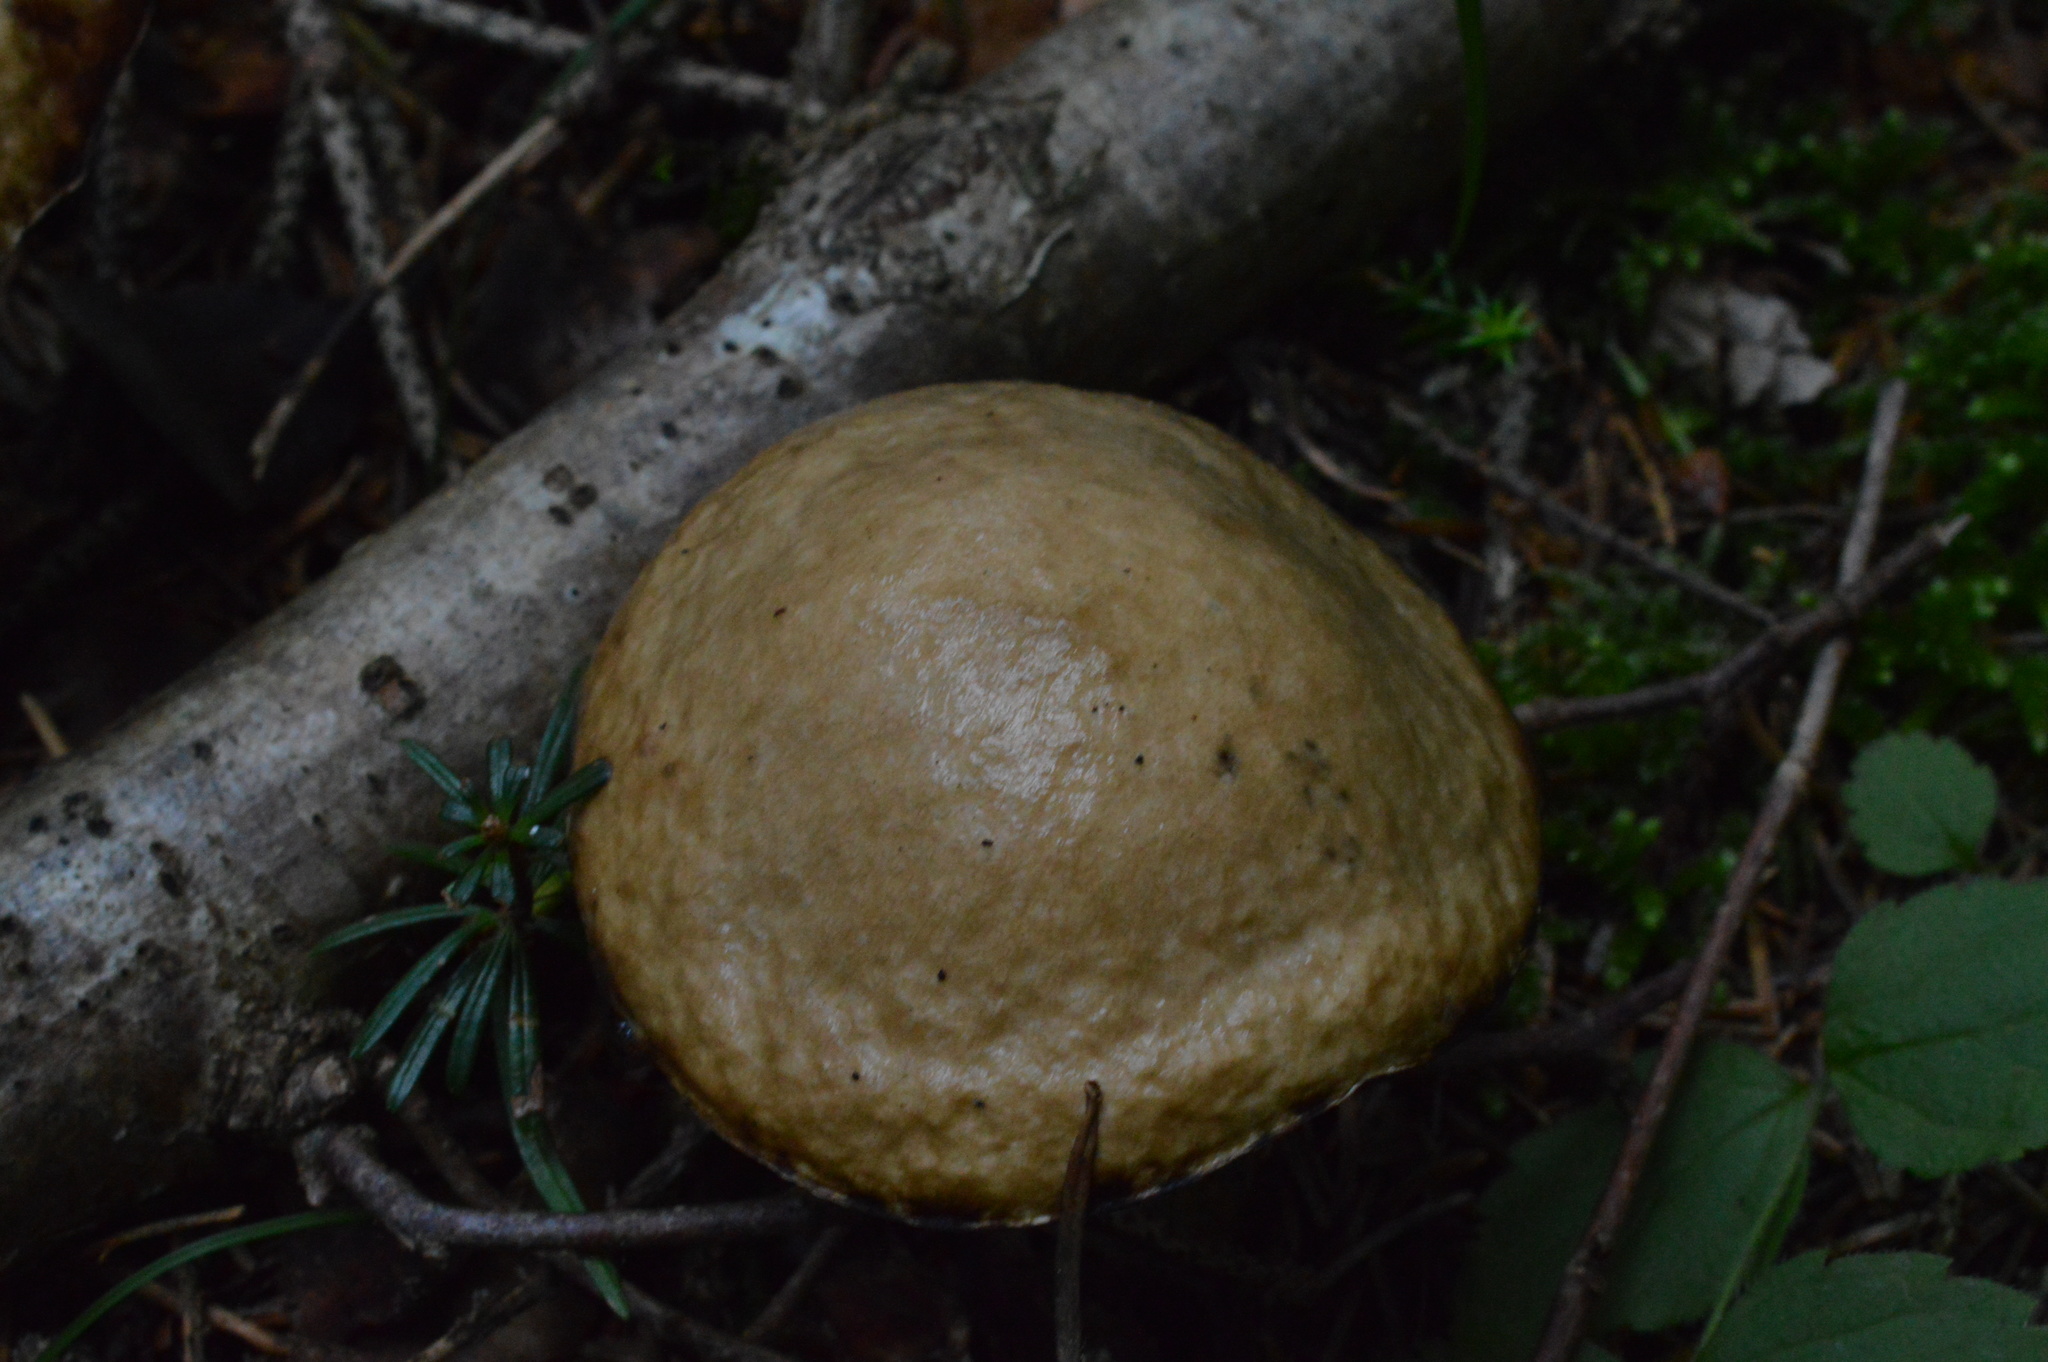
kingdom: Fungi
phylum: Basidiomycota
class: Agaricomycetes
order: Boletales
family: Suillaceae
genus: Suillus
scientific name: Suillus viscidus
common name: Sticky bolete
